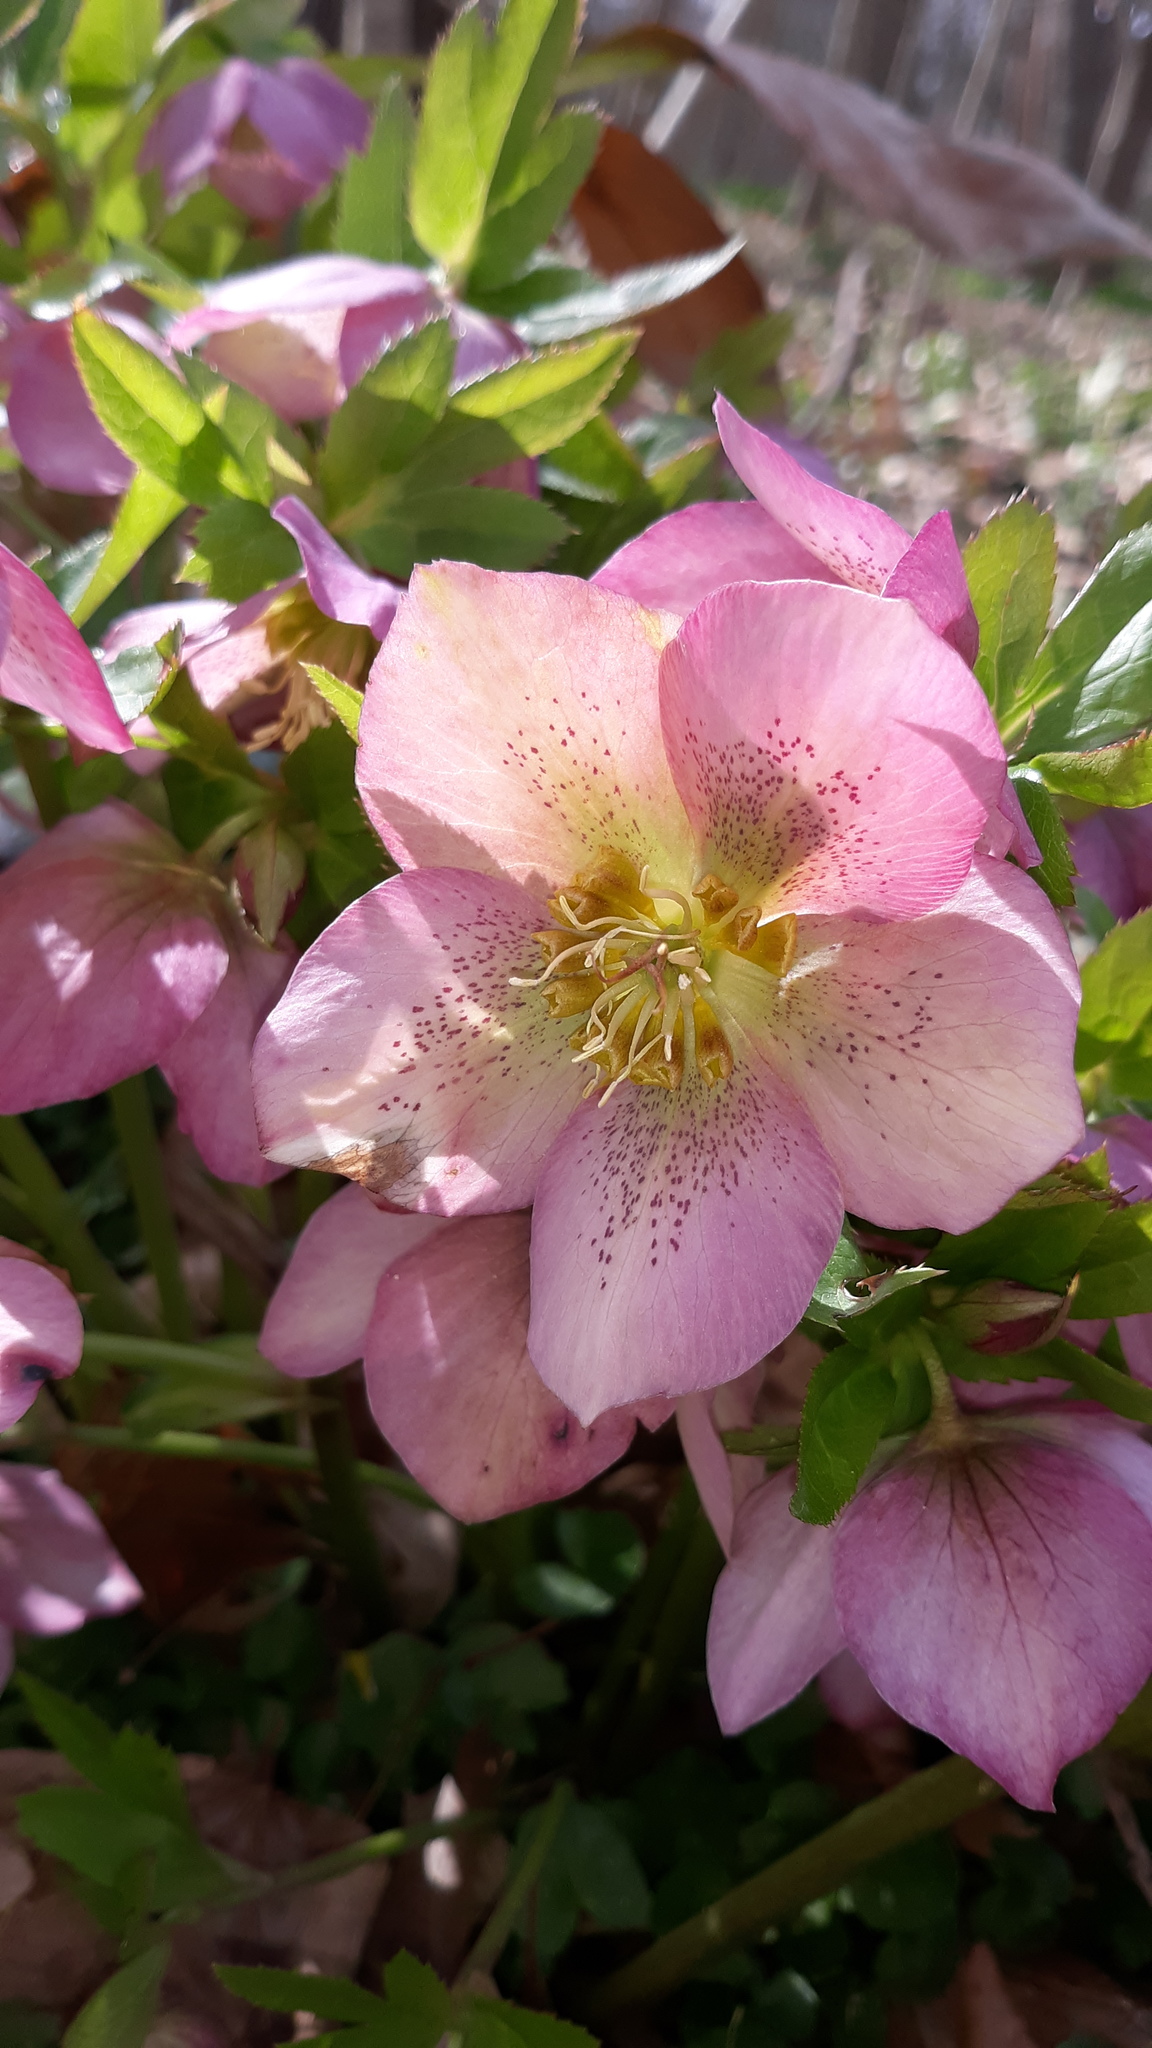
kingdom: Plantae
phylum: Tracheophyta
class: Magnoliopsida
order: Ranunculales
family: Ranunculaceae
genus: Helleborus
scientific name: Helleborus orientalis
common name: Lenten-rose
